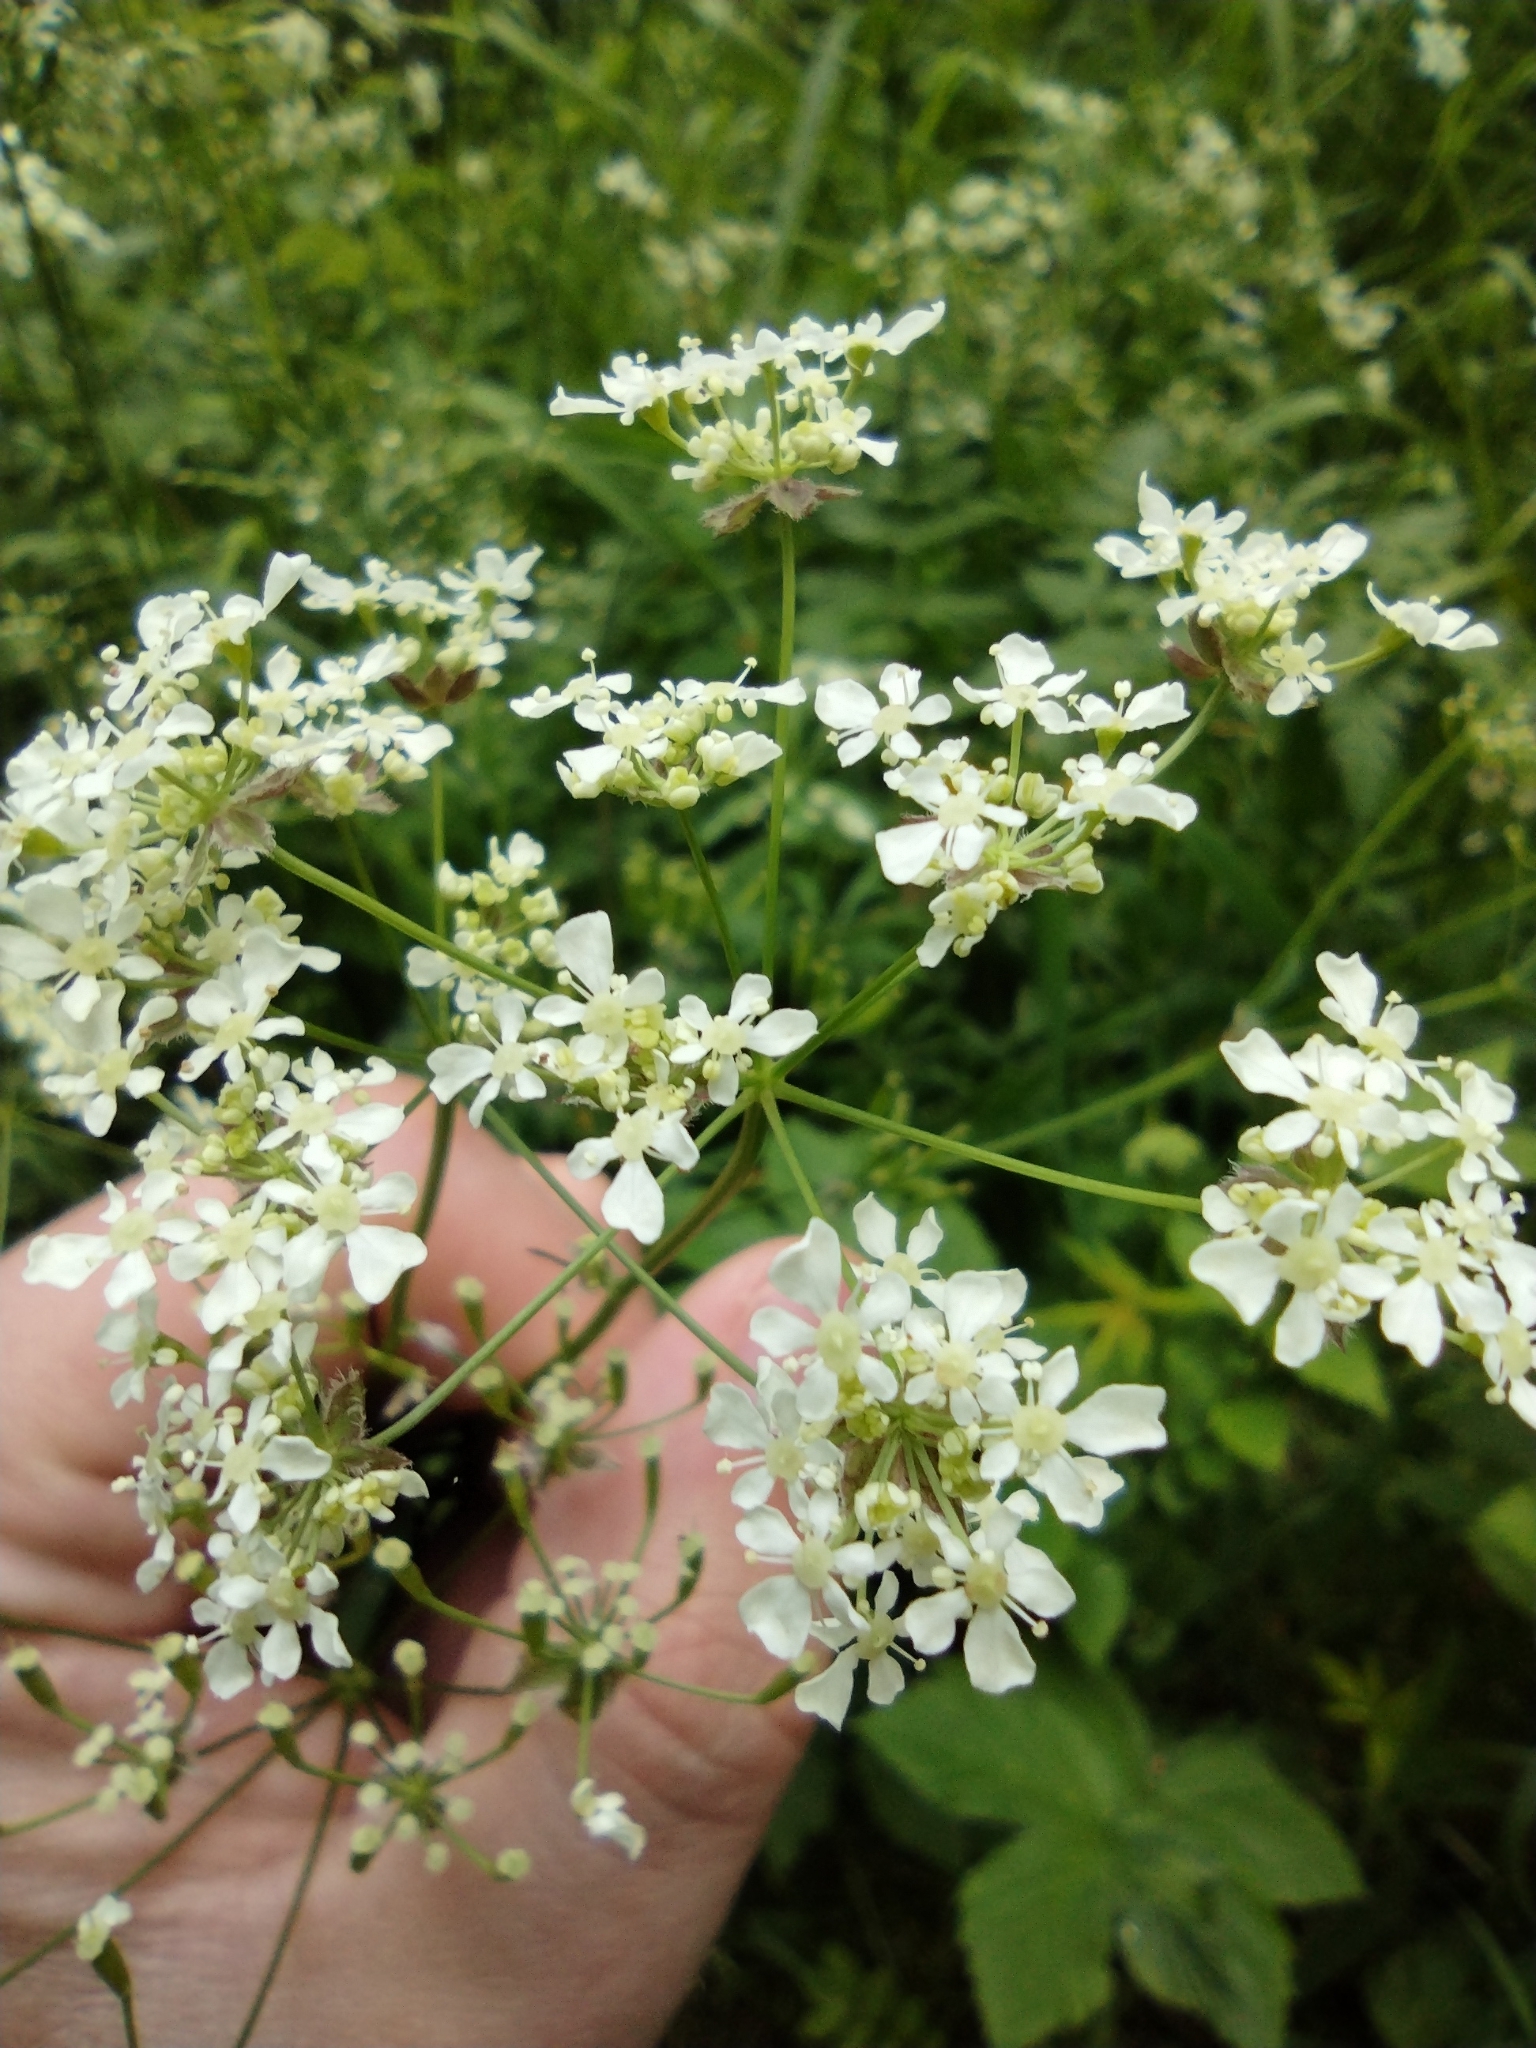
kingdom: Plantae
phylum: Tracheophyta
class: Magnoliopsida
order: Apiales
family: Apiaceae
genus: Anthriscus
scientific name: Anthriscus sylvestris
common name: Cow parsley
